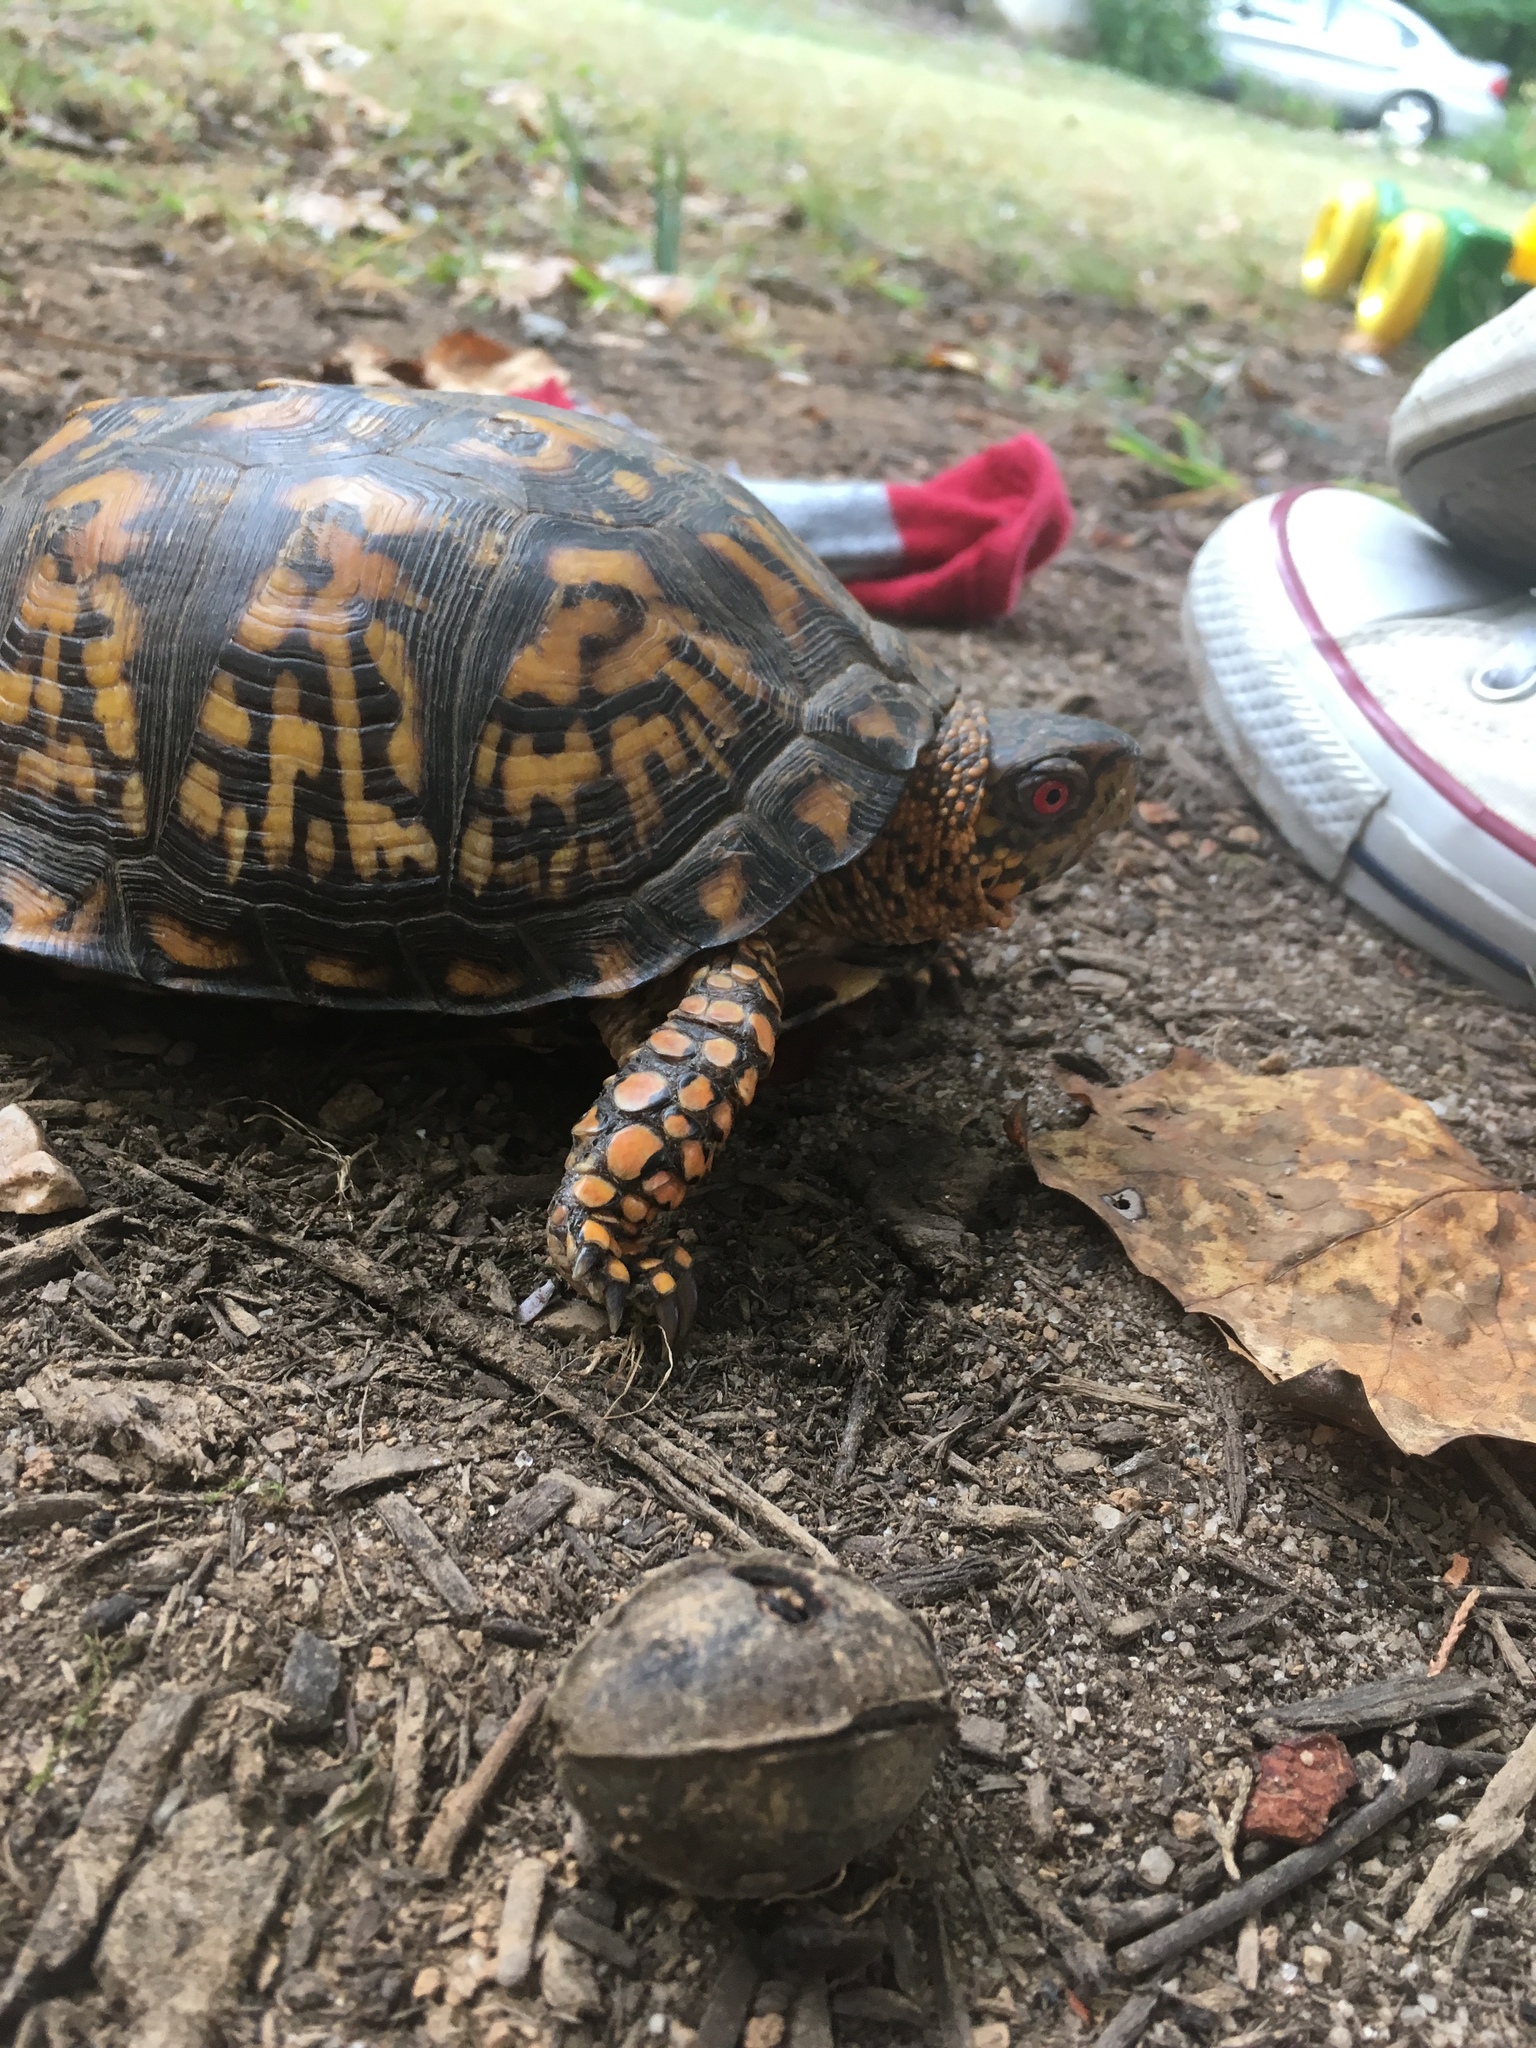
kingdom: Animalia
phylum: Chordata
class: Testudines
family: Emydidae
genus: Terrapene
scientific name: Terrapene carolina
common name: Common box turtle
